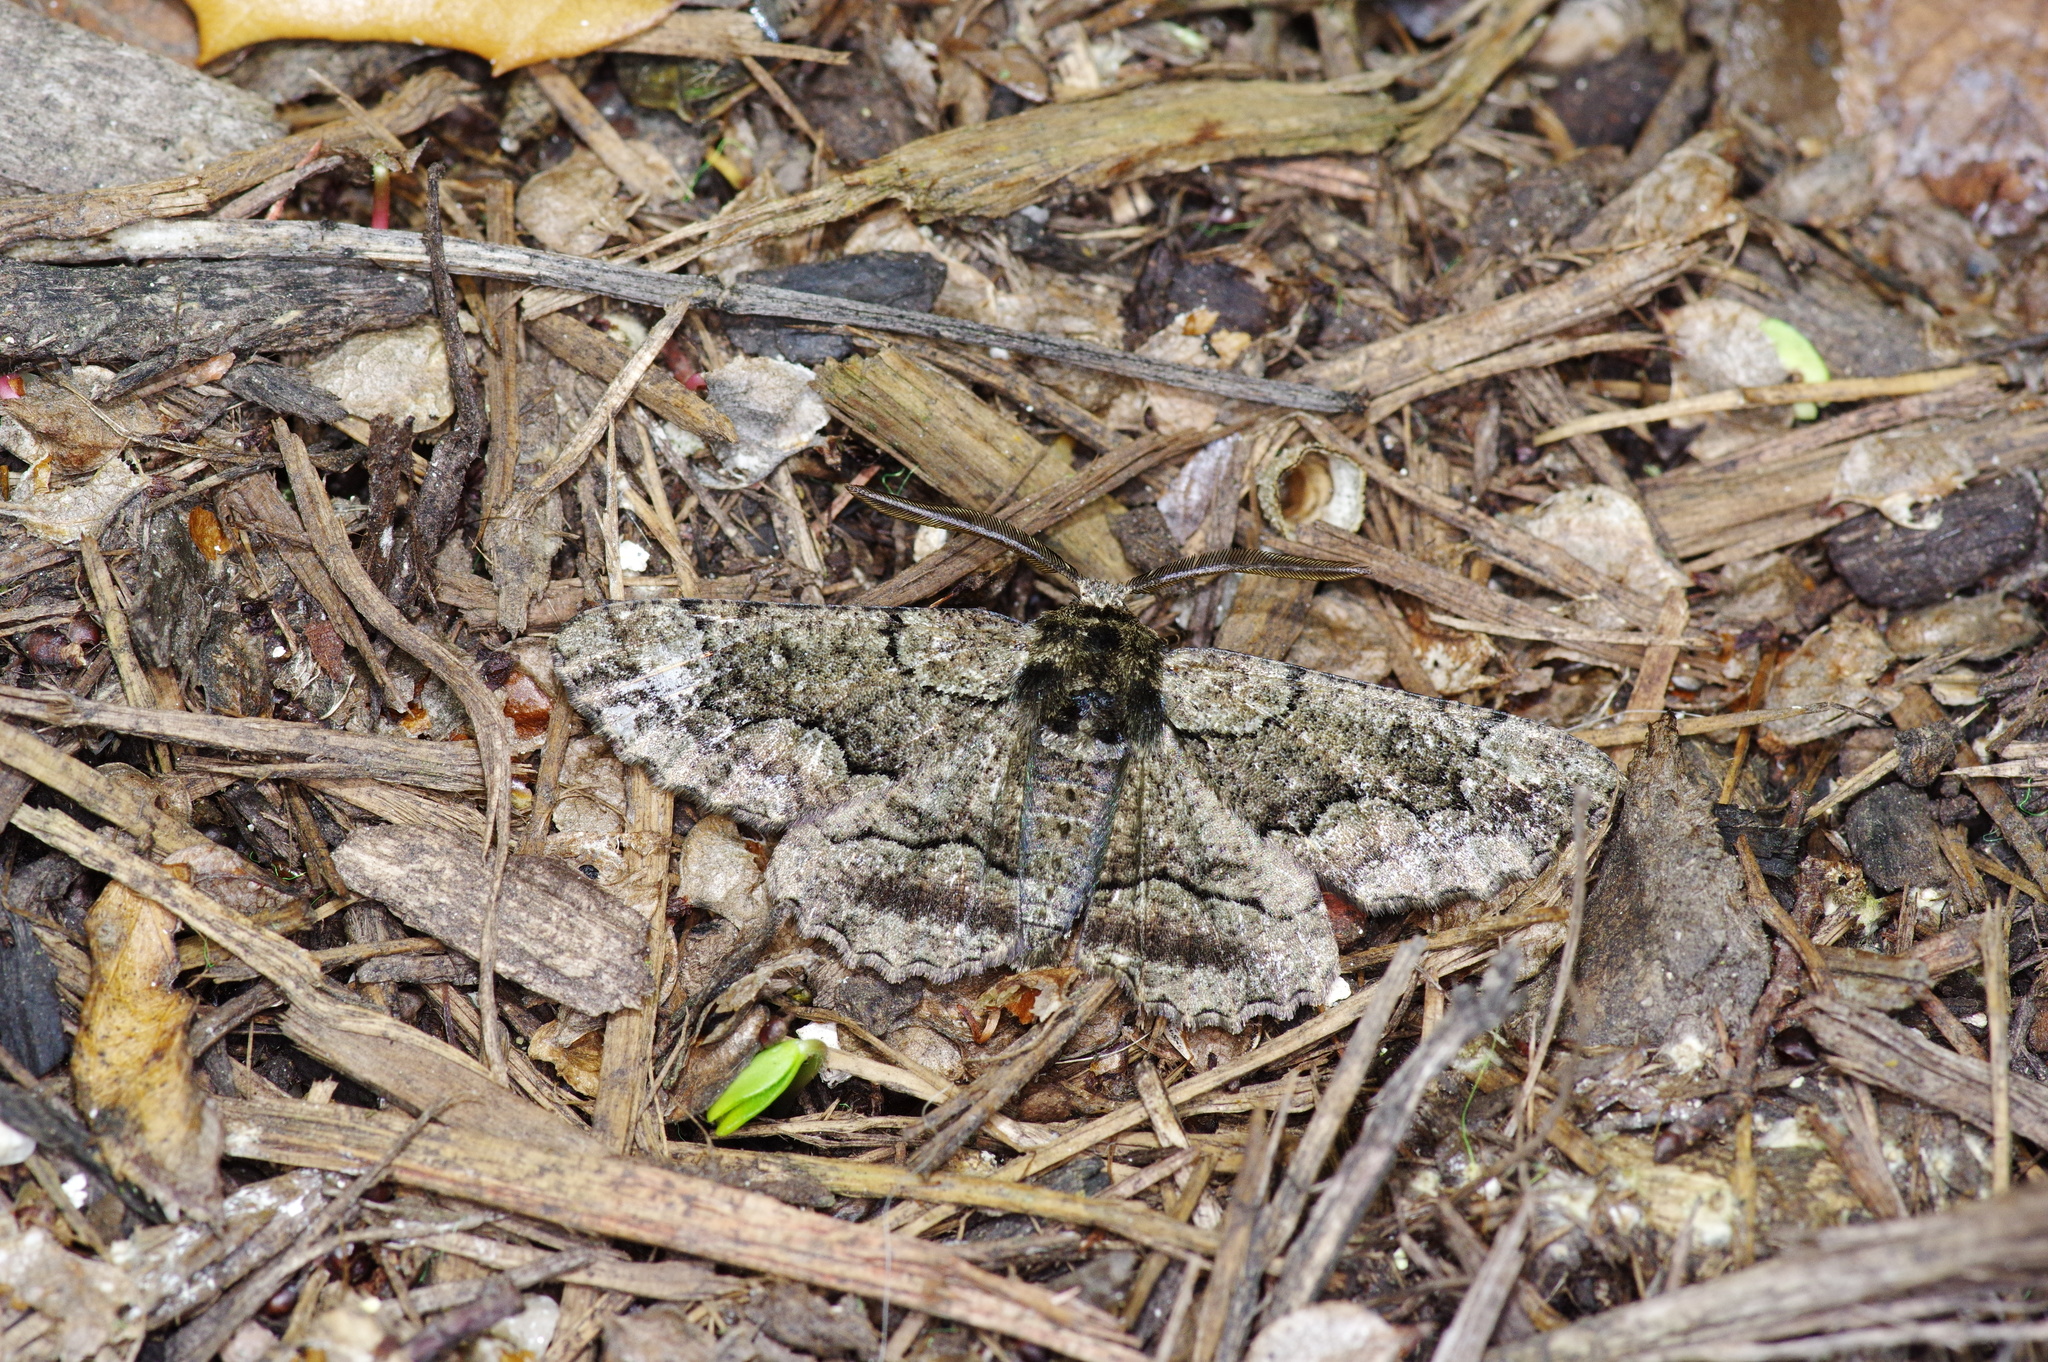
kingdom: Animalia
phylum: Arthropoda
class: Insecta
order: Lepidoptera
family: Geometridae
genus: Phaeoura
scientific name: Phaeoura quernaria
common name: Oak beauty
